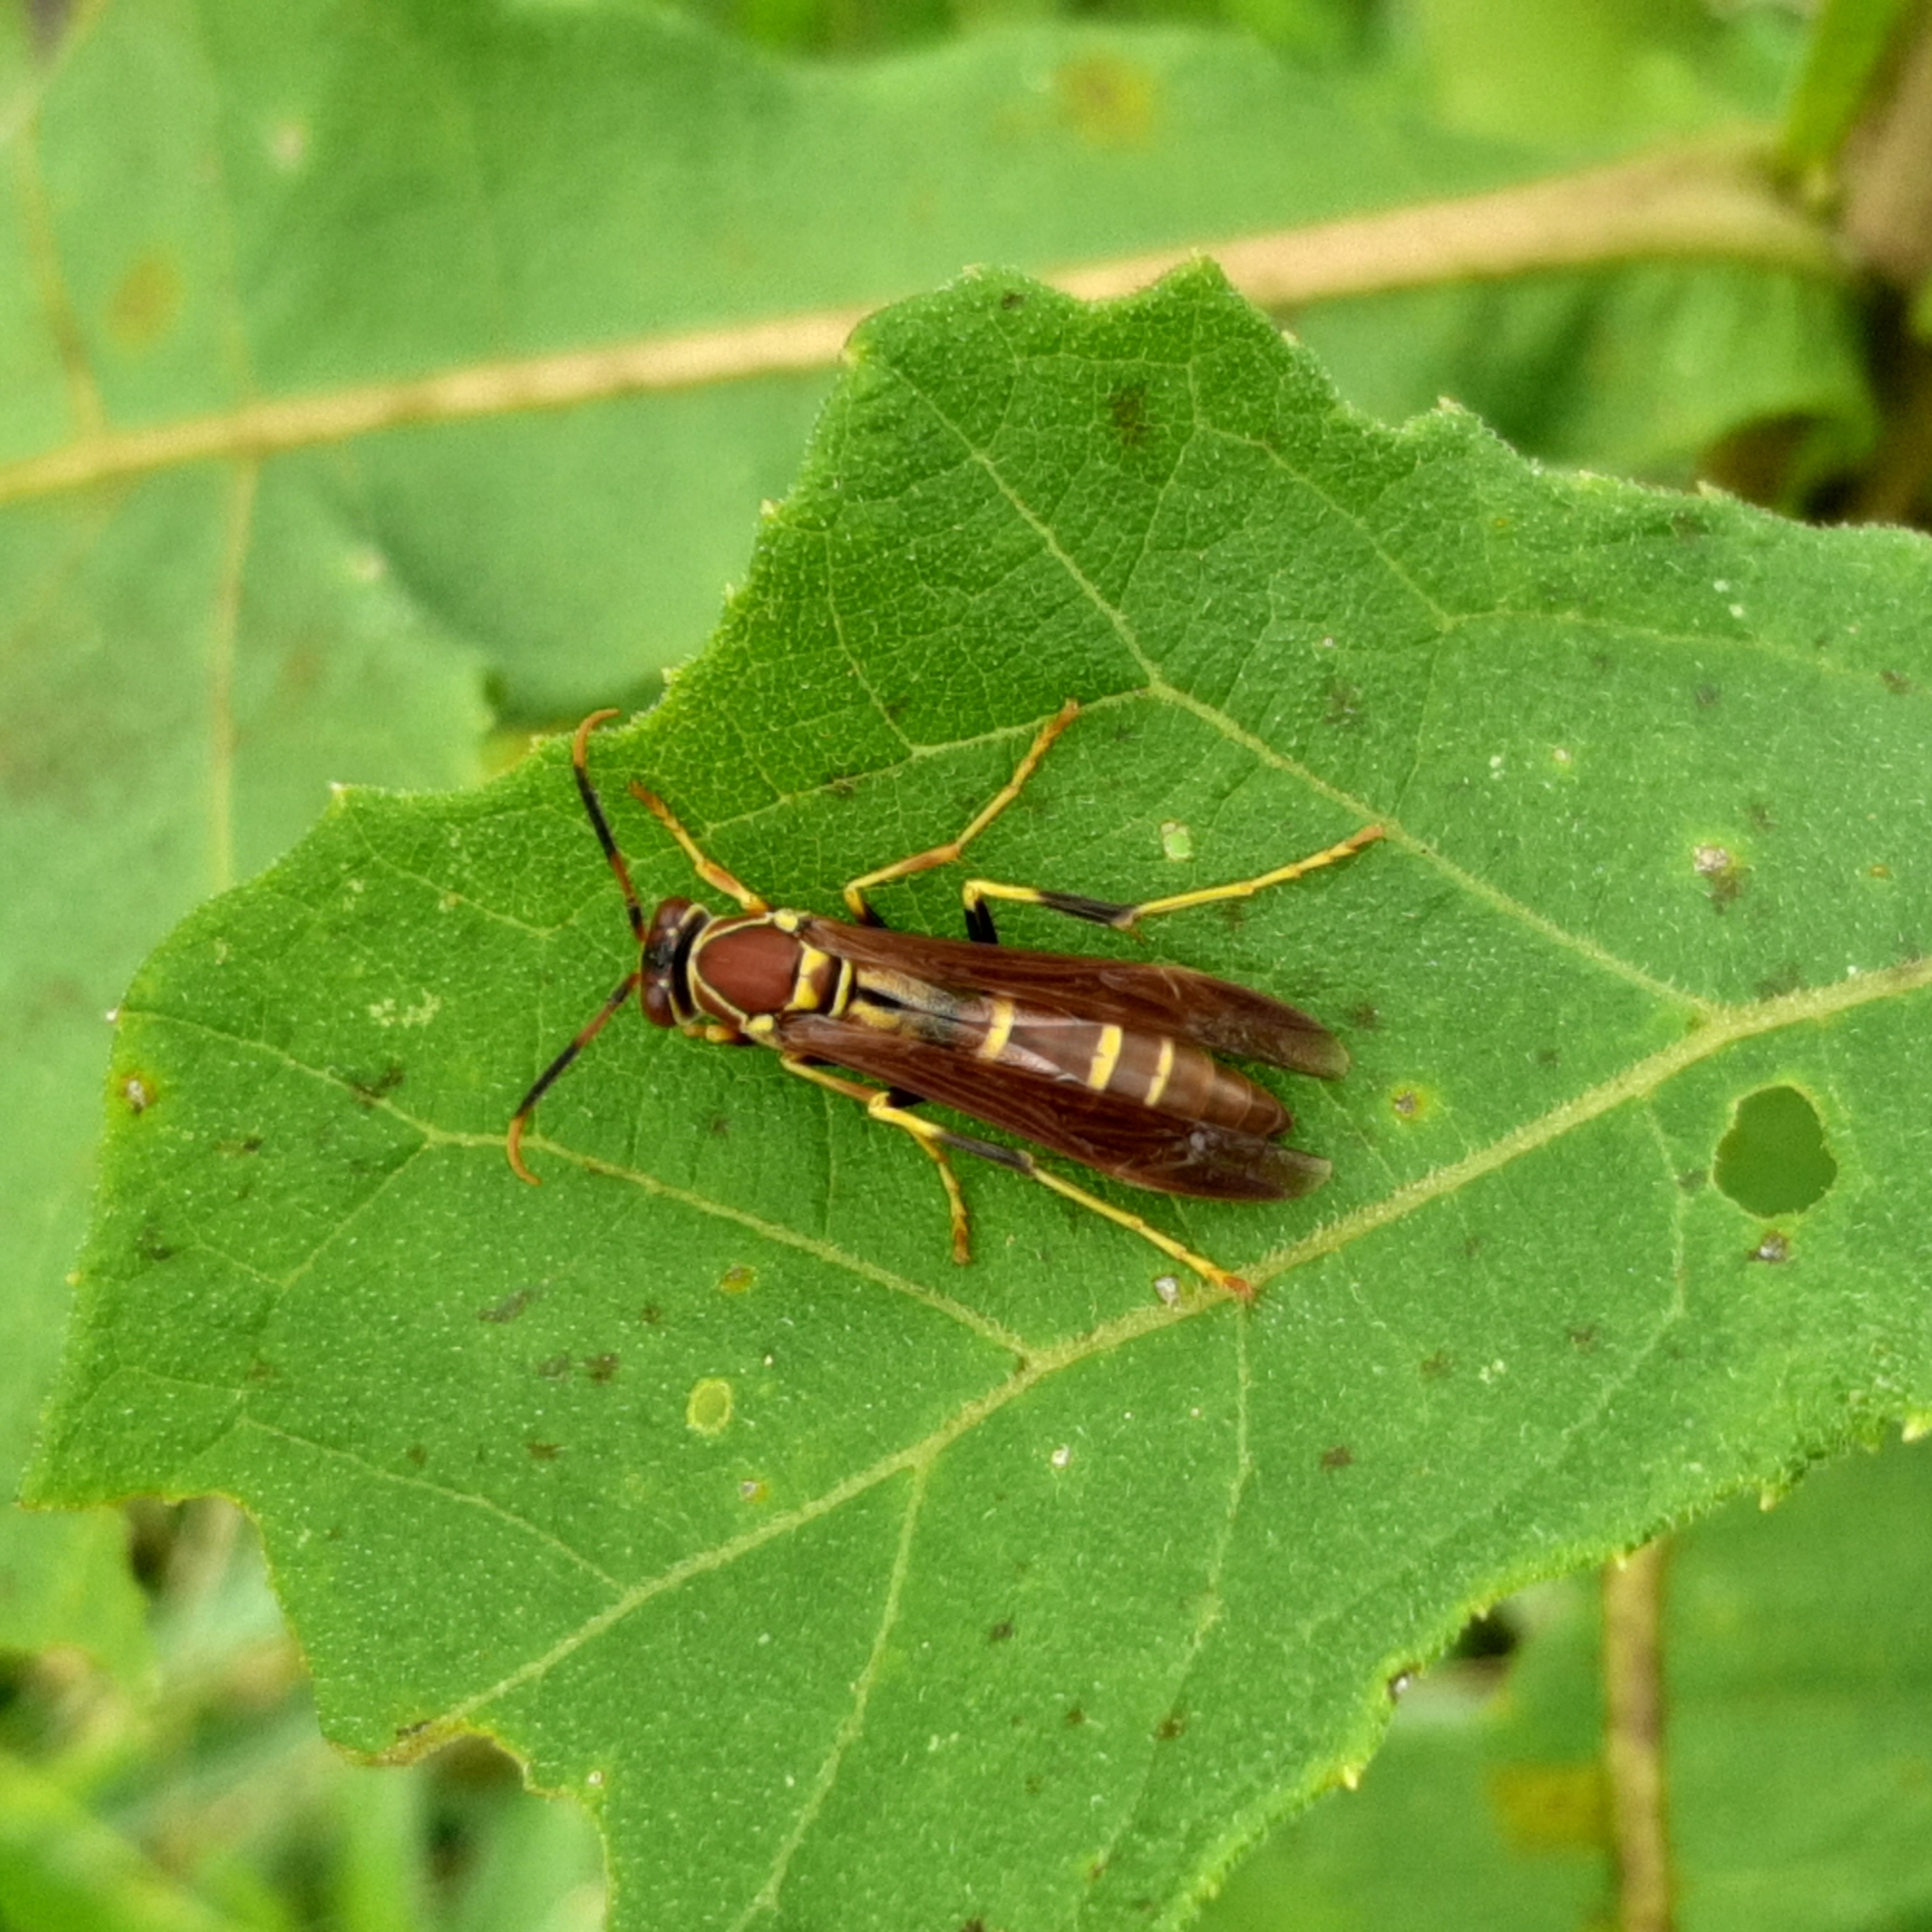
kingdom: Animalia
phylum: Arthropoda
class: Insecta
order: Hymenoptera
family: Eumenidae
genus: Polistes
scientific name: Polistes instabilis
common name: Unstable paper wasp
